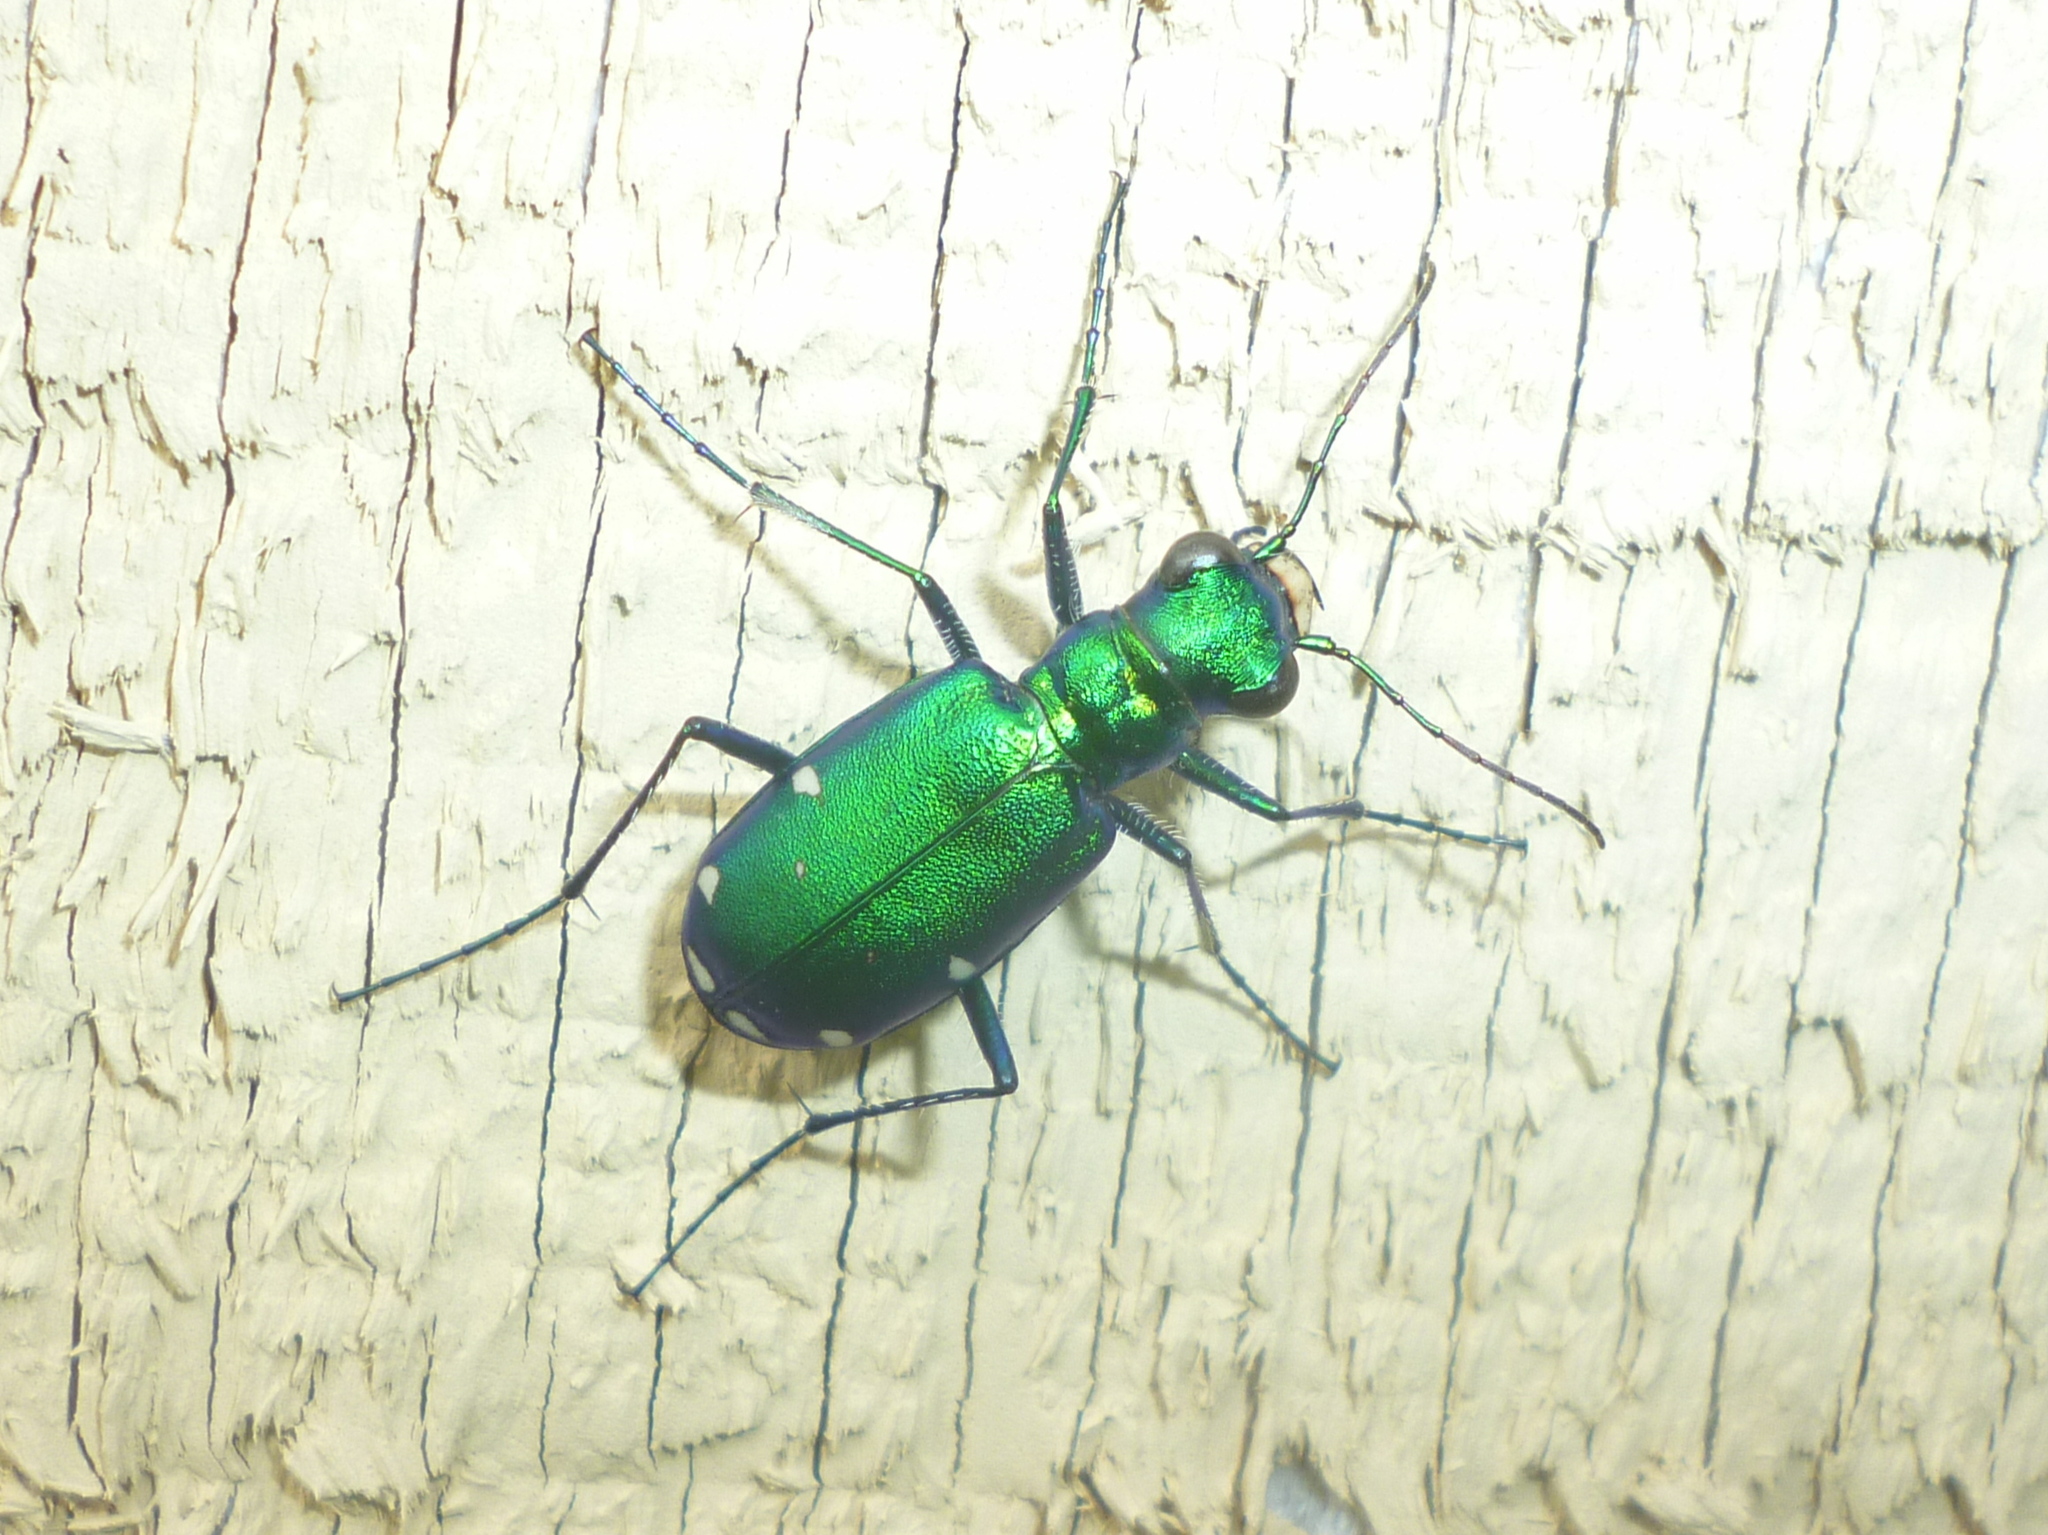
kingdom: Animalia
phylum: Arthropoda
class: Insecta
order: Coleoptera
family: Carabidae
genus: Cicindela
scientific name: Cicindela sexguttata
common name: Six-spotted tiger beetle
